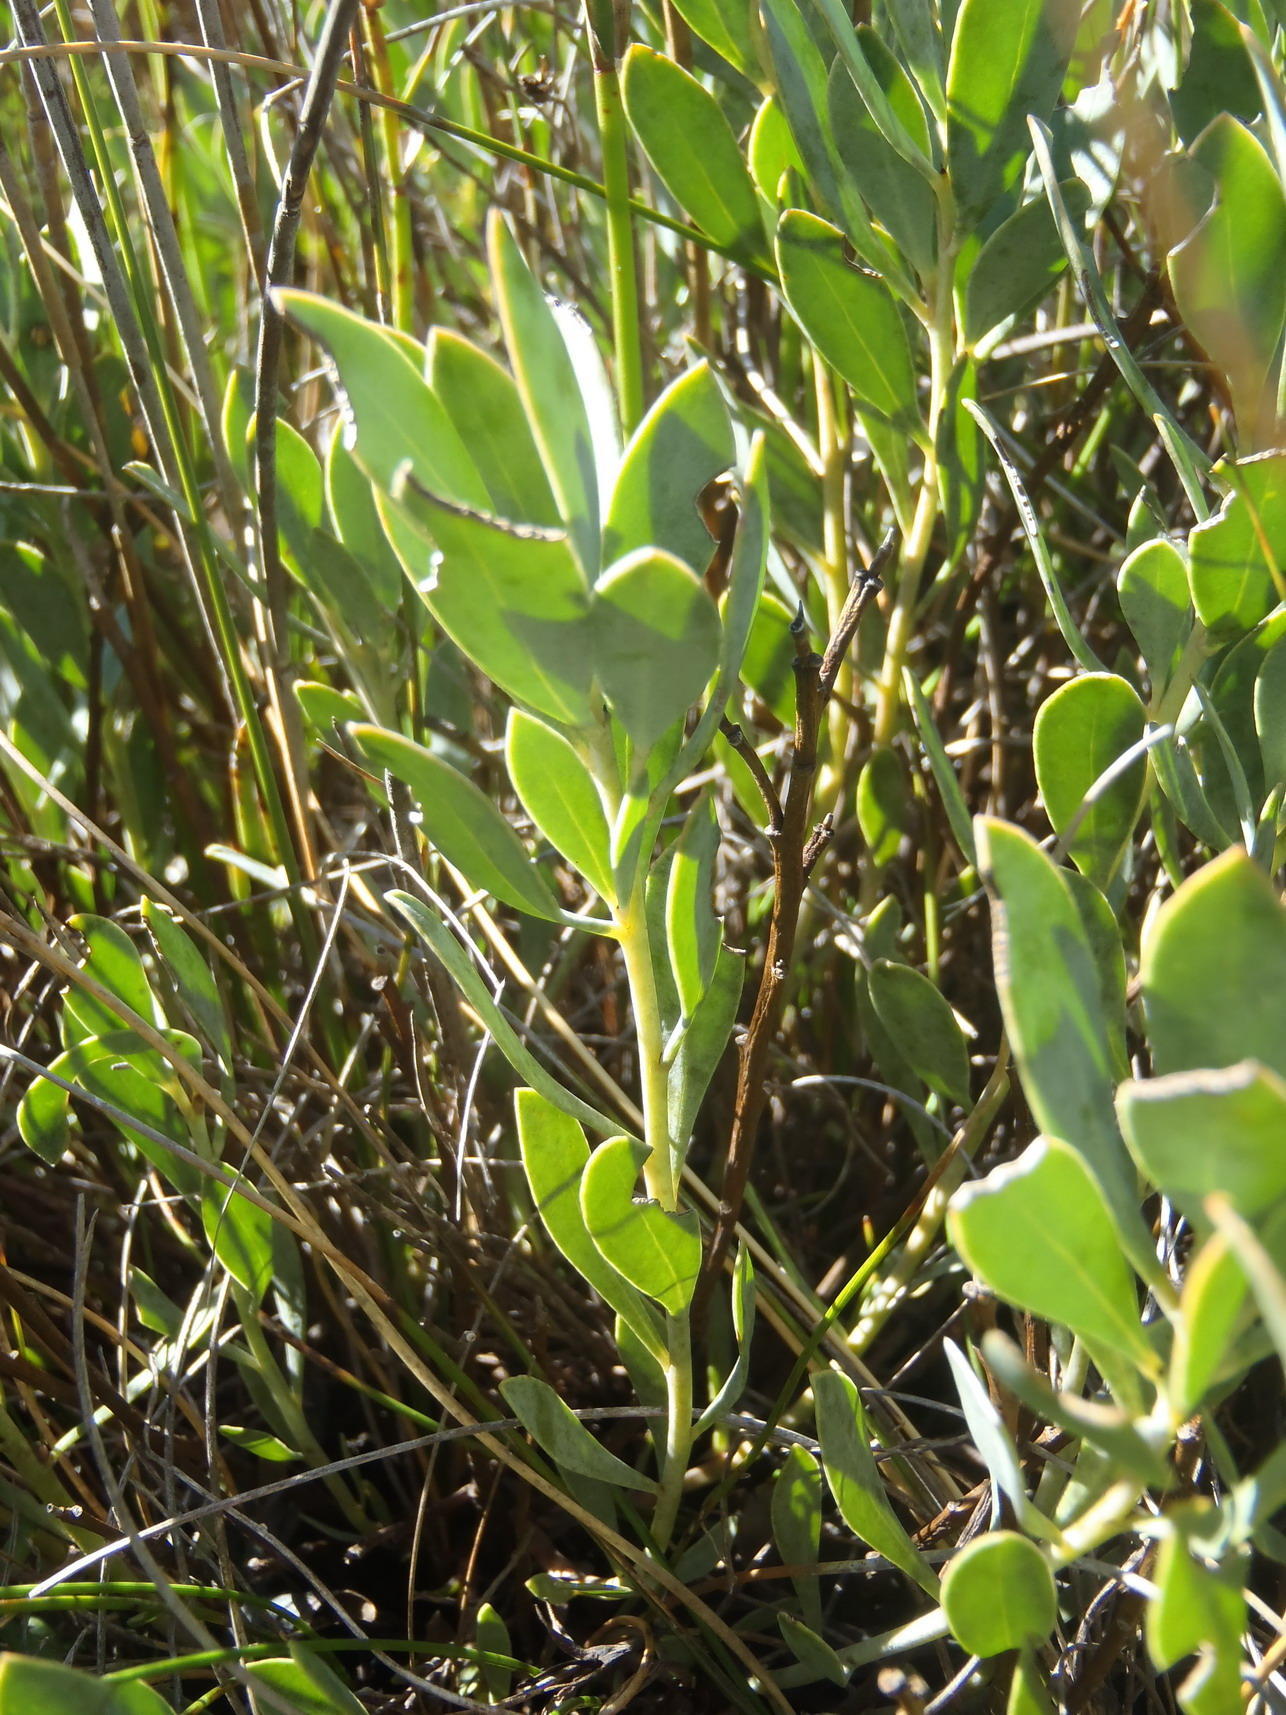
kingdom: Plantae
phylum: Tracheophyta
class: Magnoliopsida
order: Fabales
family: Fabaceae
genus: Rafnia
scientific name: Rafnia rostrata
